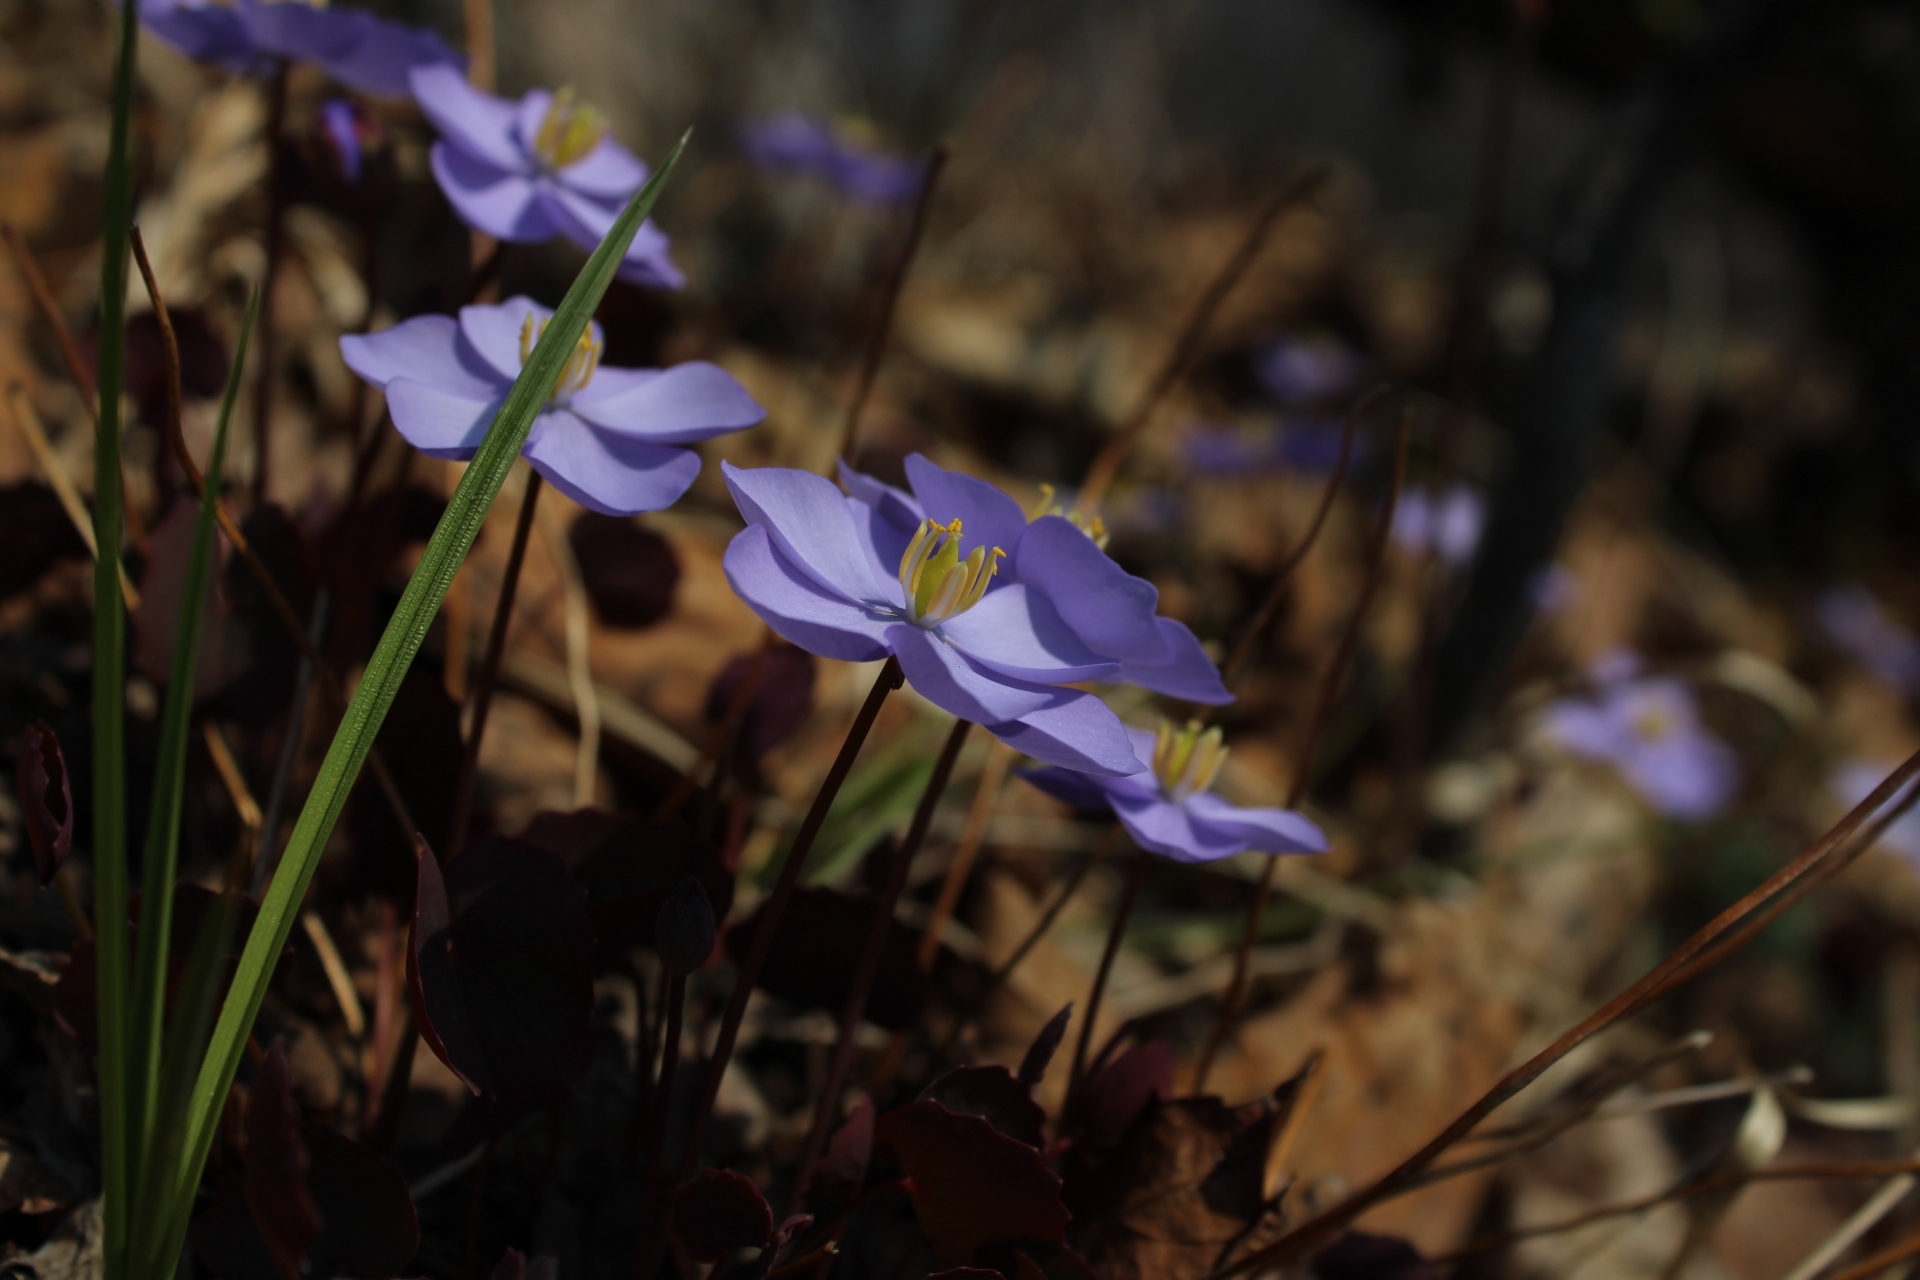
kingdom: Plantae
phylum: Tracheophyta
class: Magnoliopsida
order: Ranunculales
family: Berberidaceae
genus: Plagiorhegma
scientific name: Plagiorhegma dubium
